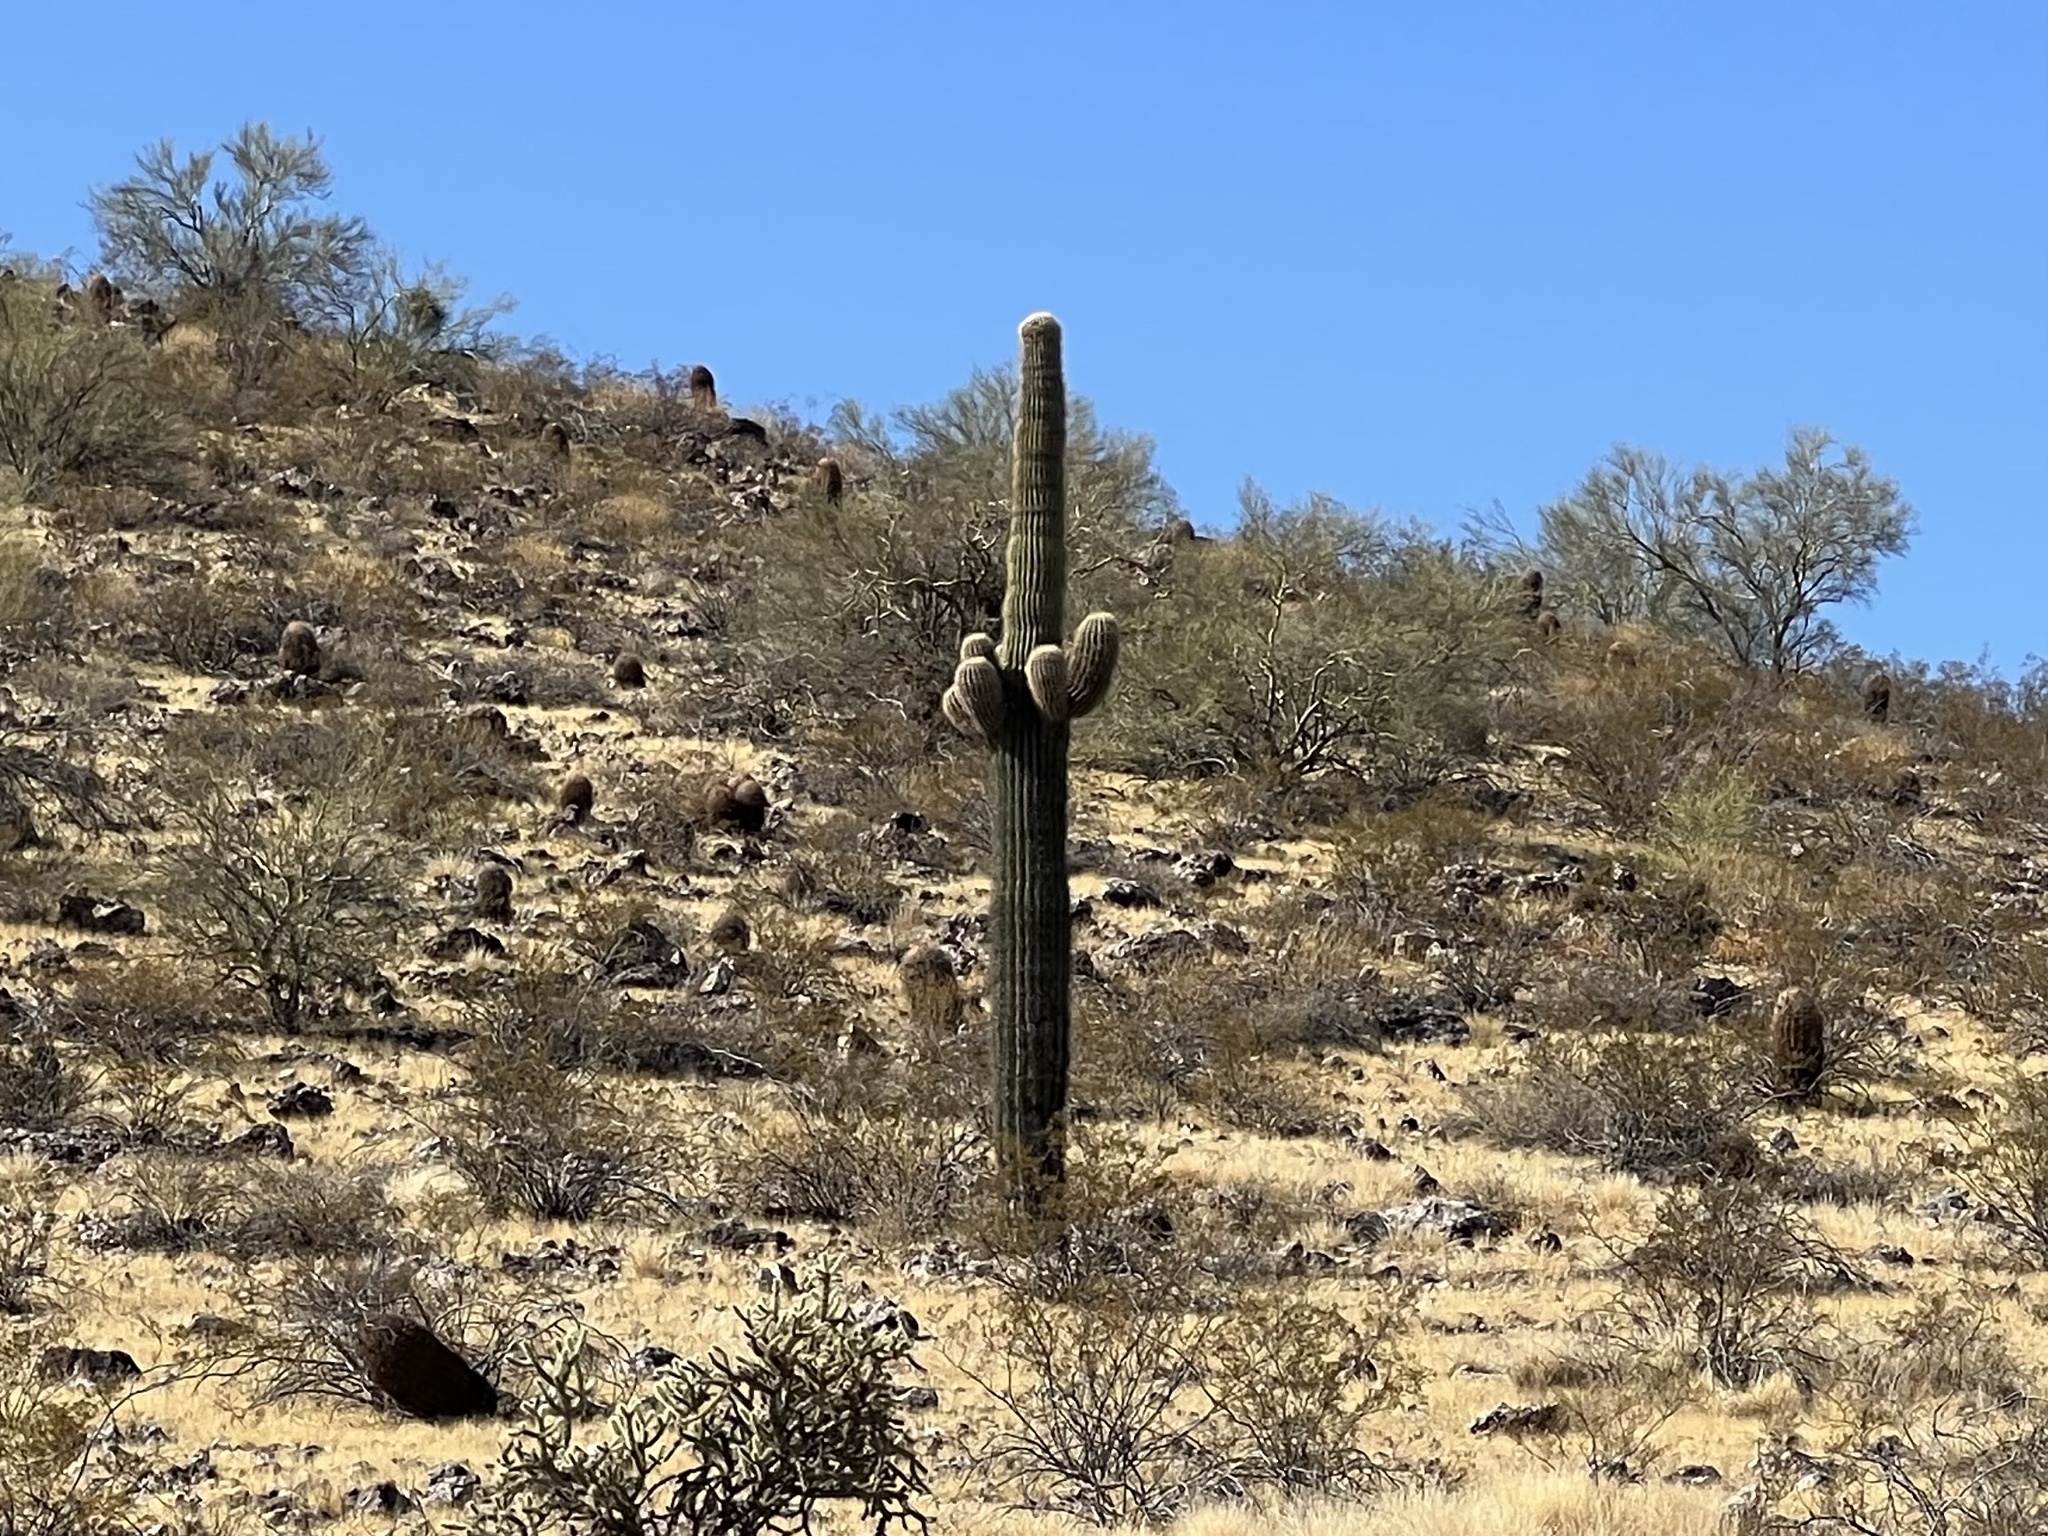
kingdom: Plantae
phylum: Tracheophyta
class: Magnoliopsida
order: Caryophyllales
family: Cactaceae
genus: Carnegiea
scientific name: Carnegiea gigantea
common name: Saguaro
